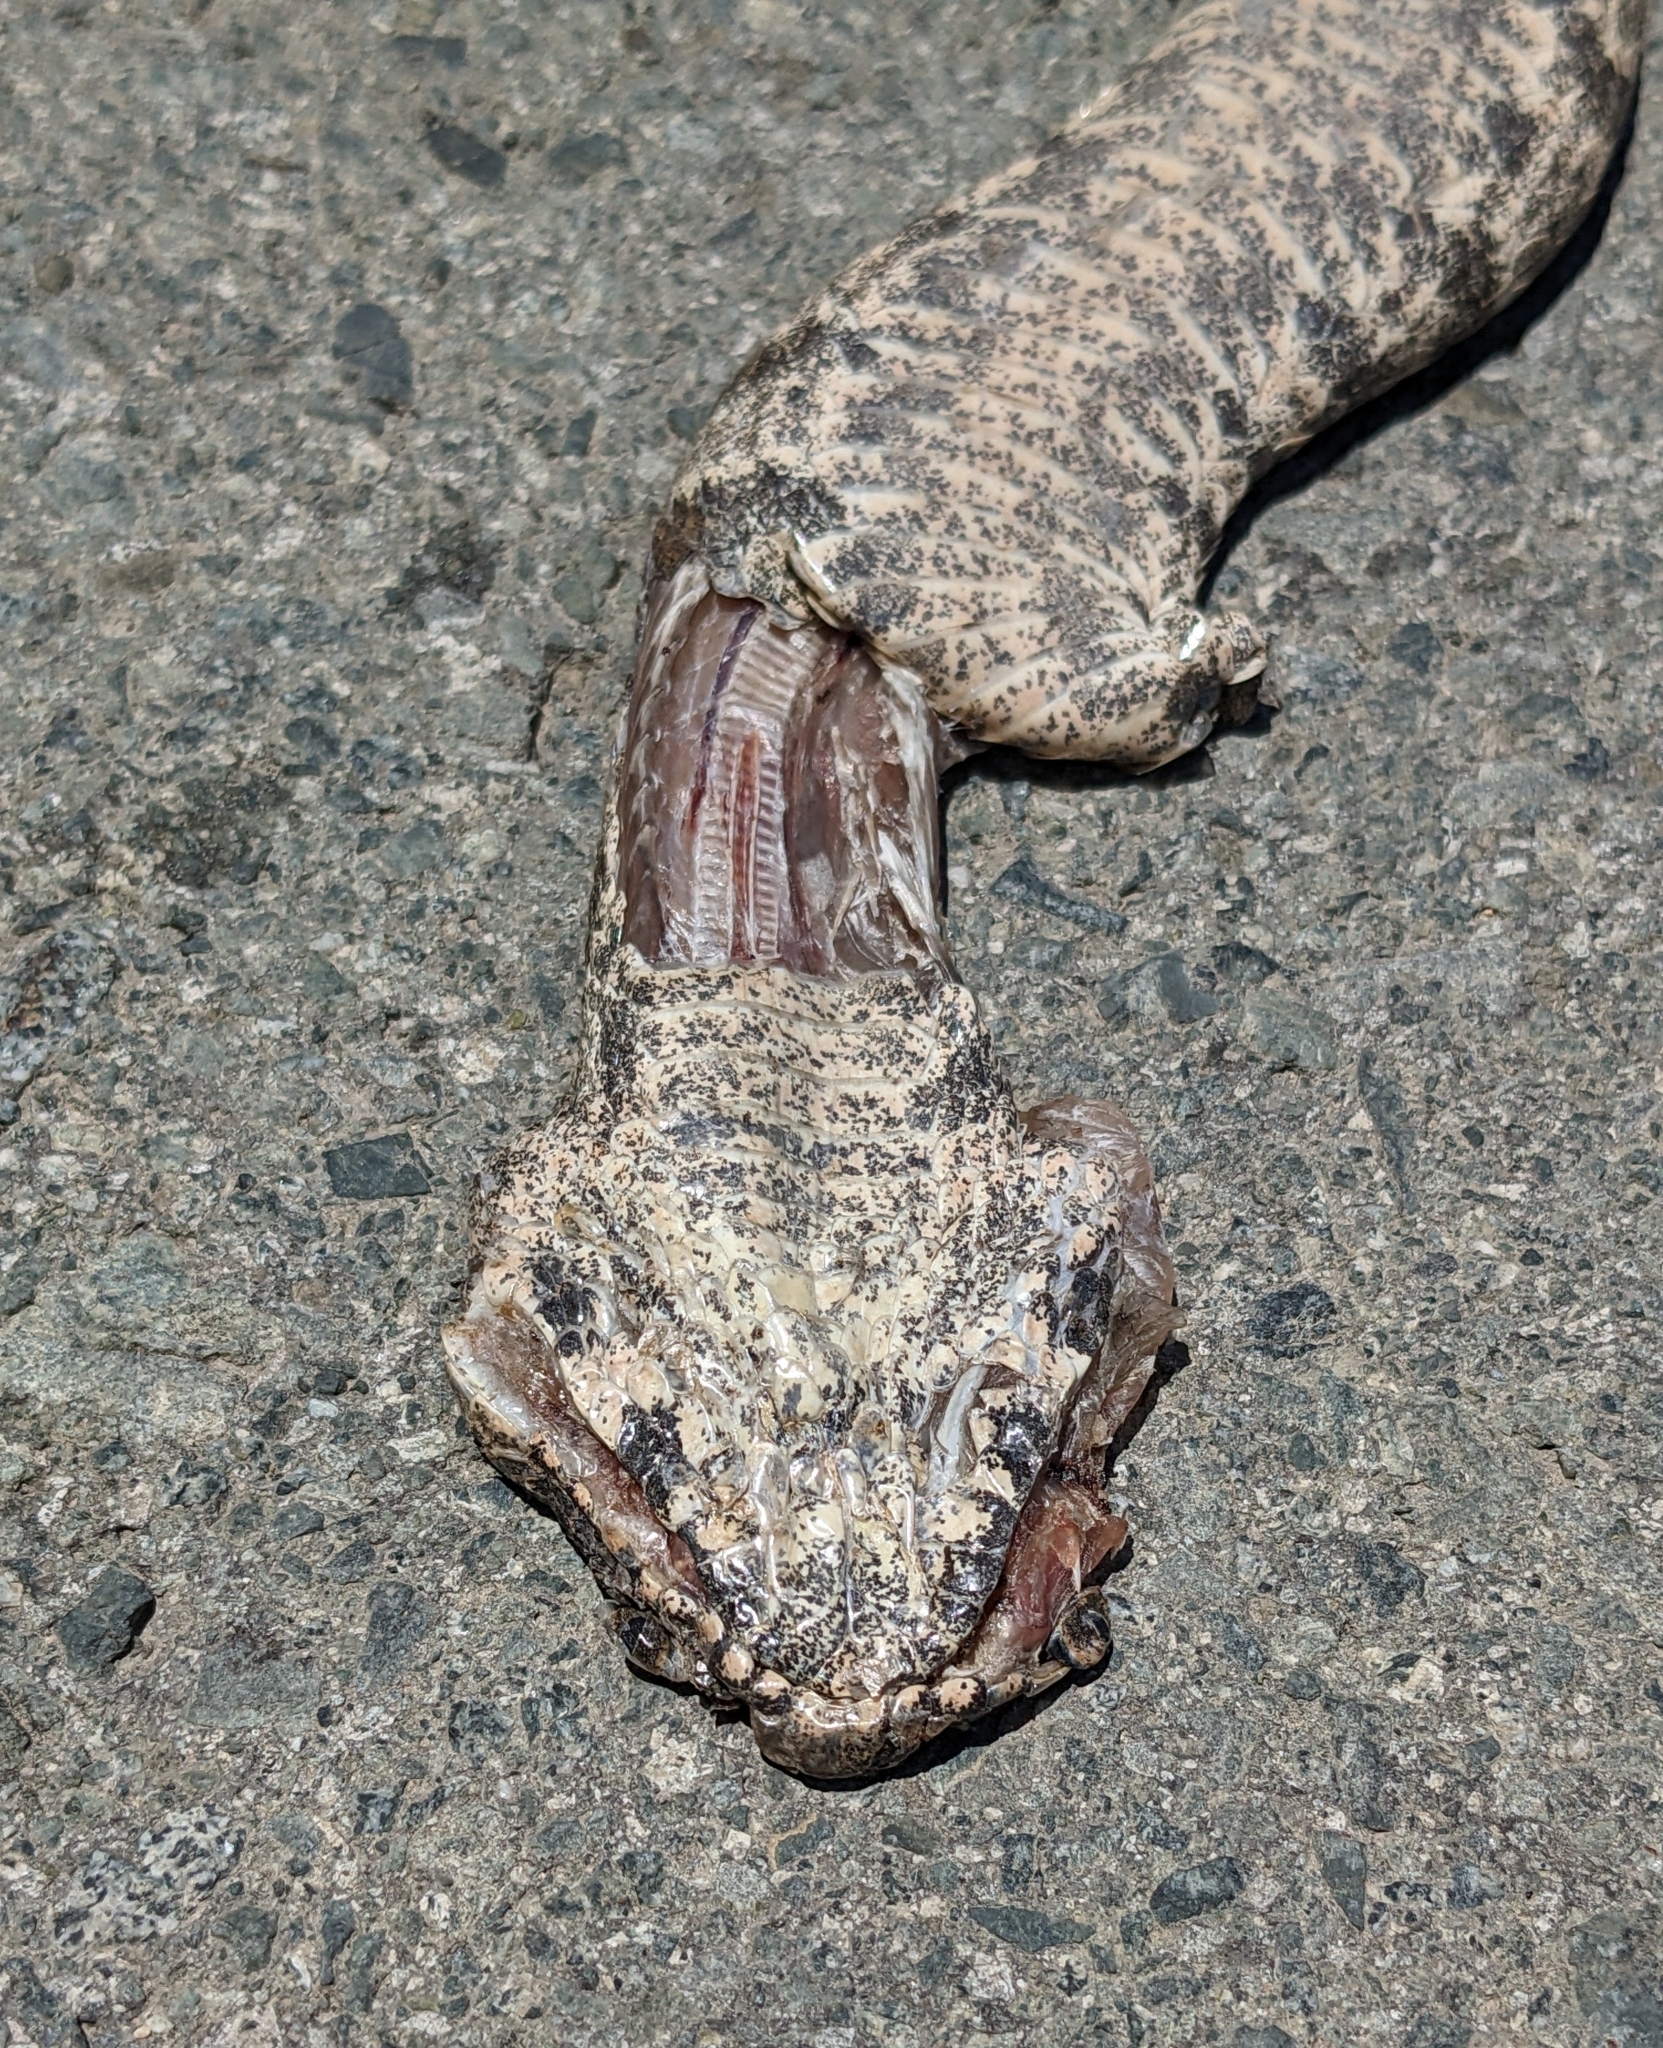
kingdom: Animalia
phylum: Chordata
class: Squamata
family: Viperidae
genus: Macrovipera
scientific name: Macrovipera lebetinus
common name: Levantine viper
